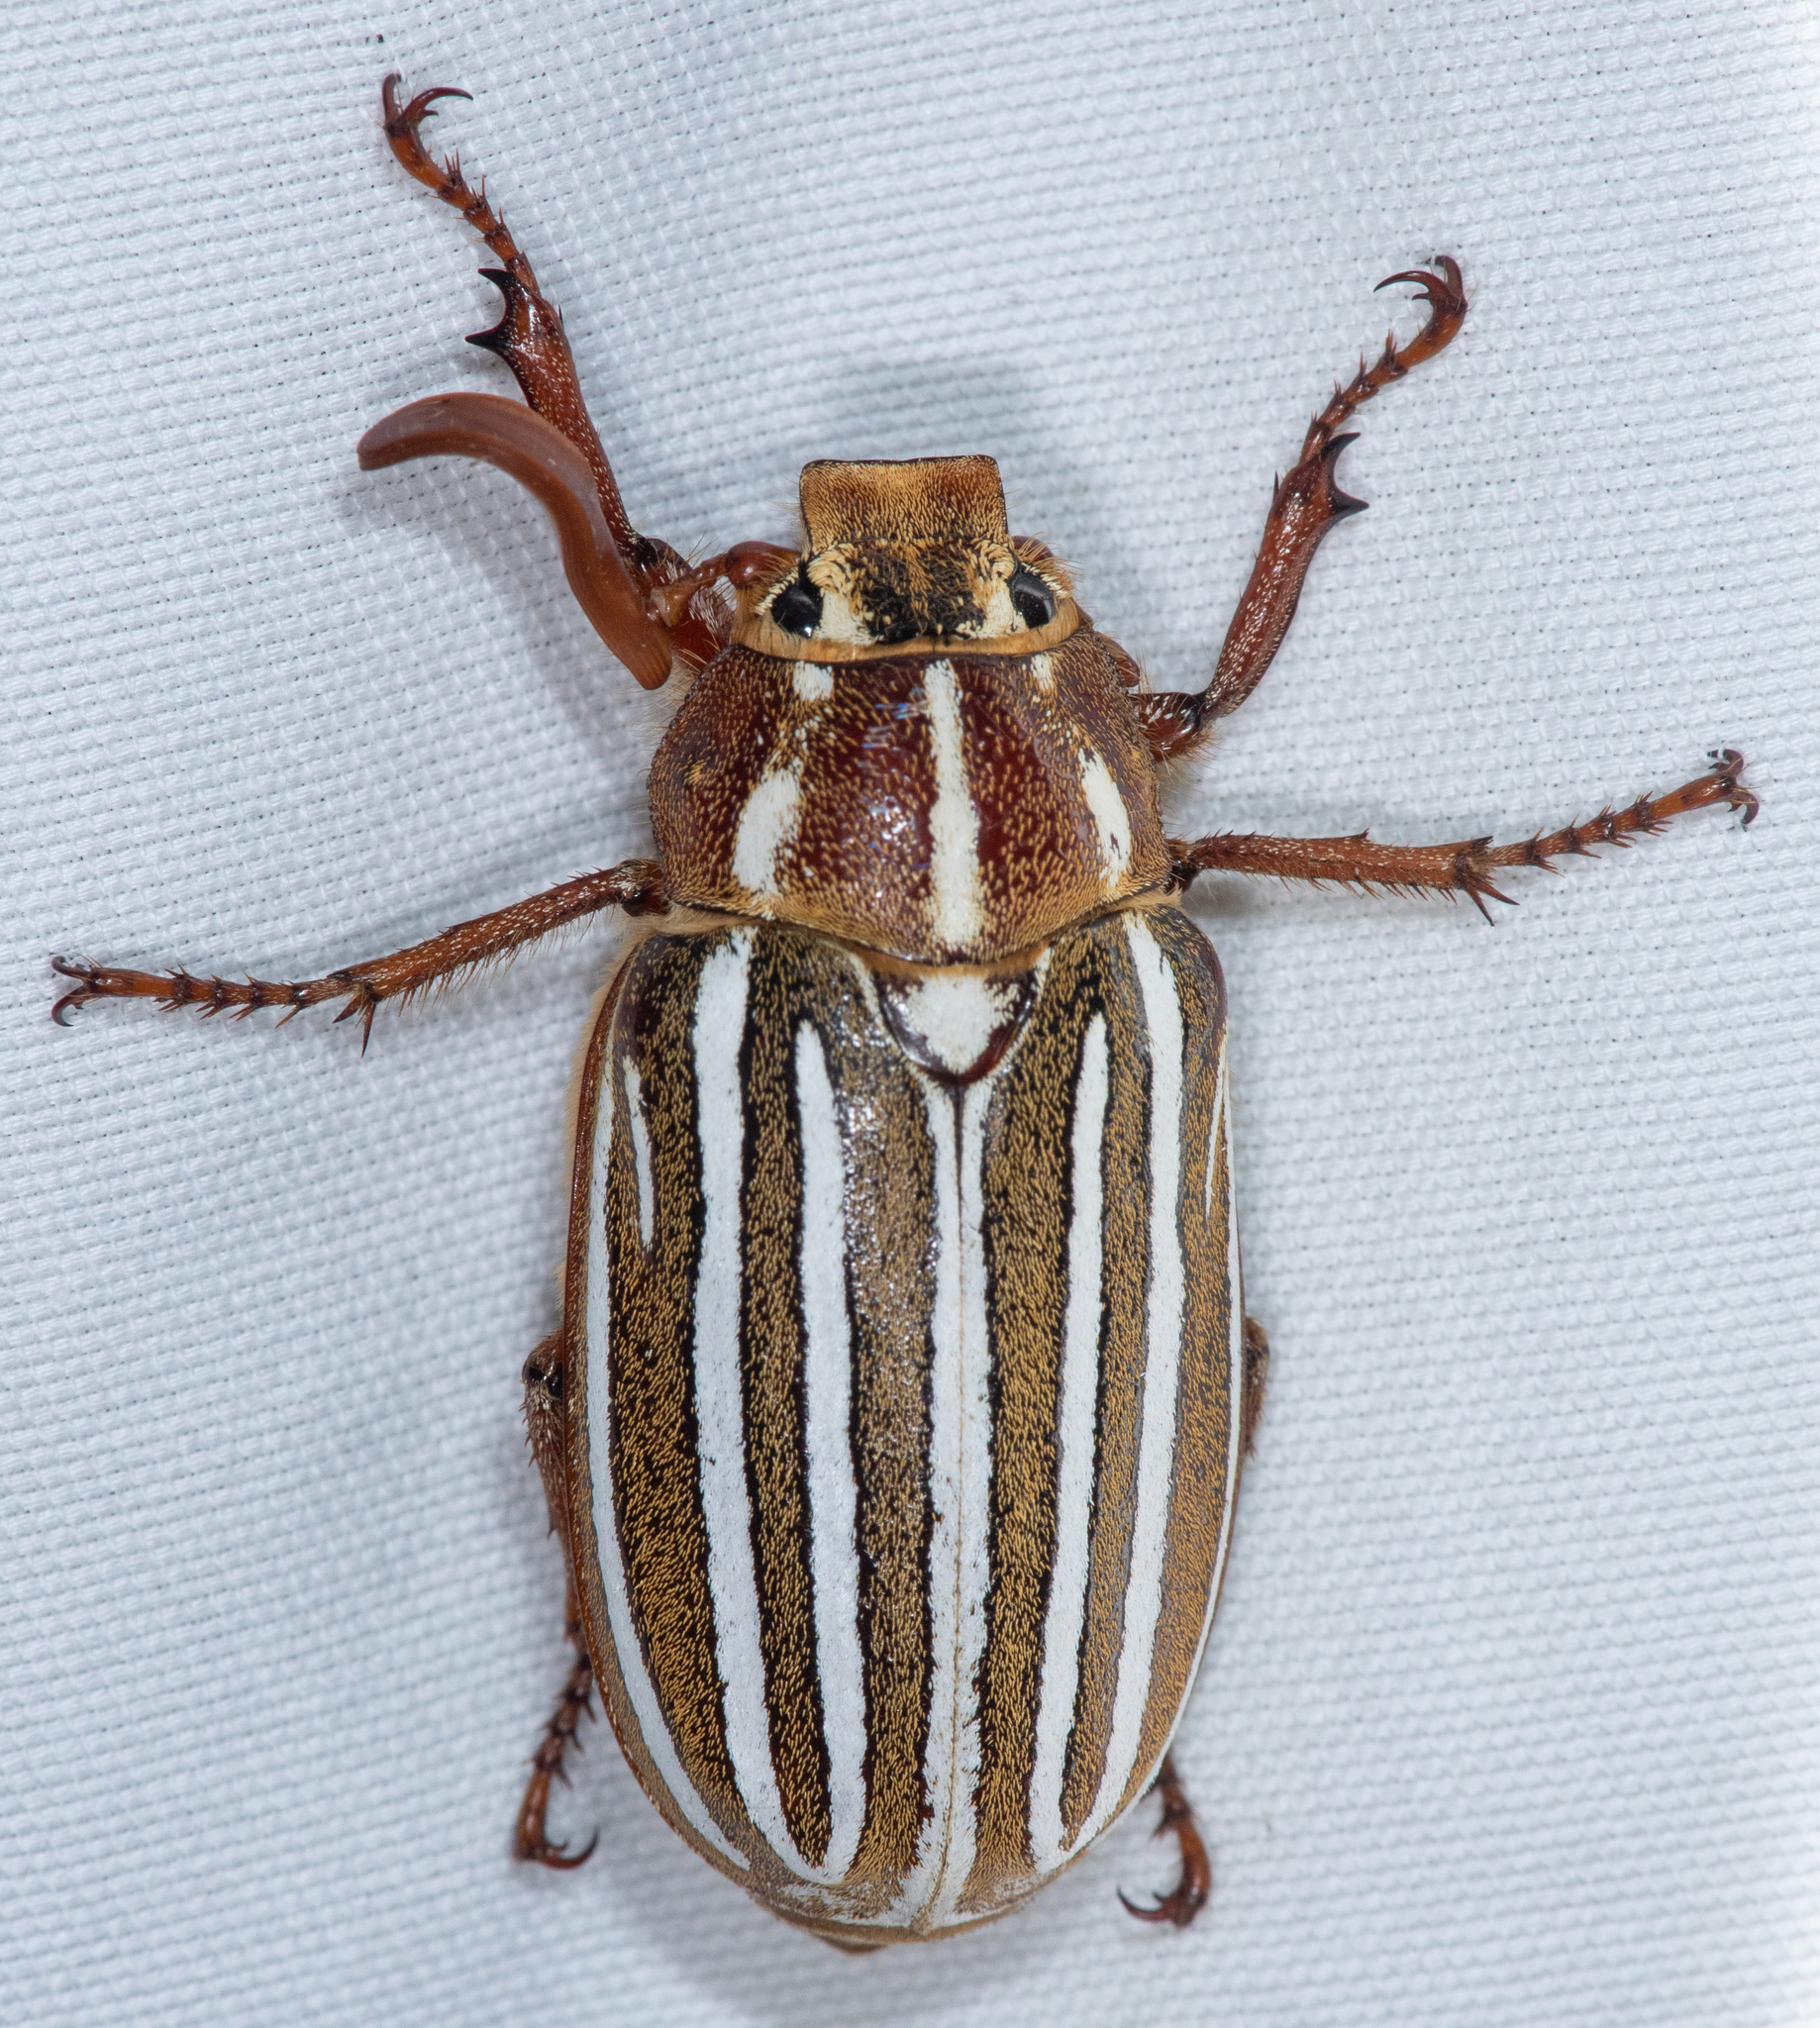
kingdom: Animalia
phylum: Arthropoda
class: Insecta
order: Coleoptera
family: Scarabaeidae
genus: Polyphylla
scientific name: Polyphylla decemlineata
